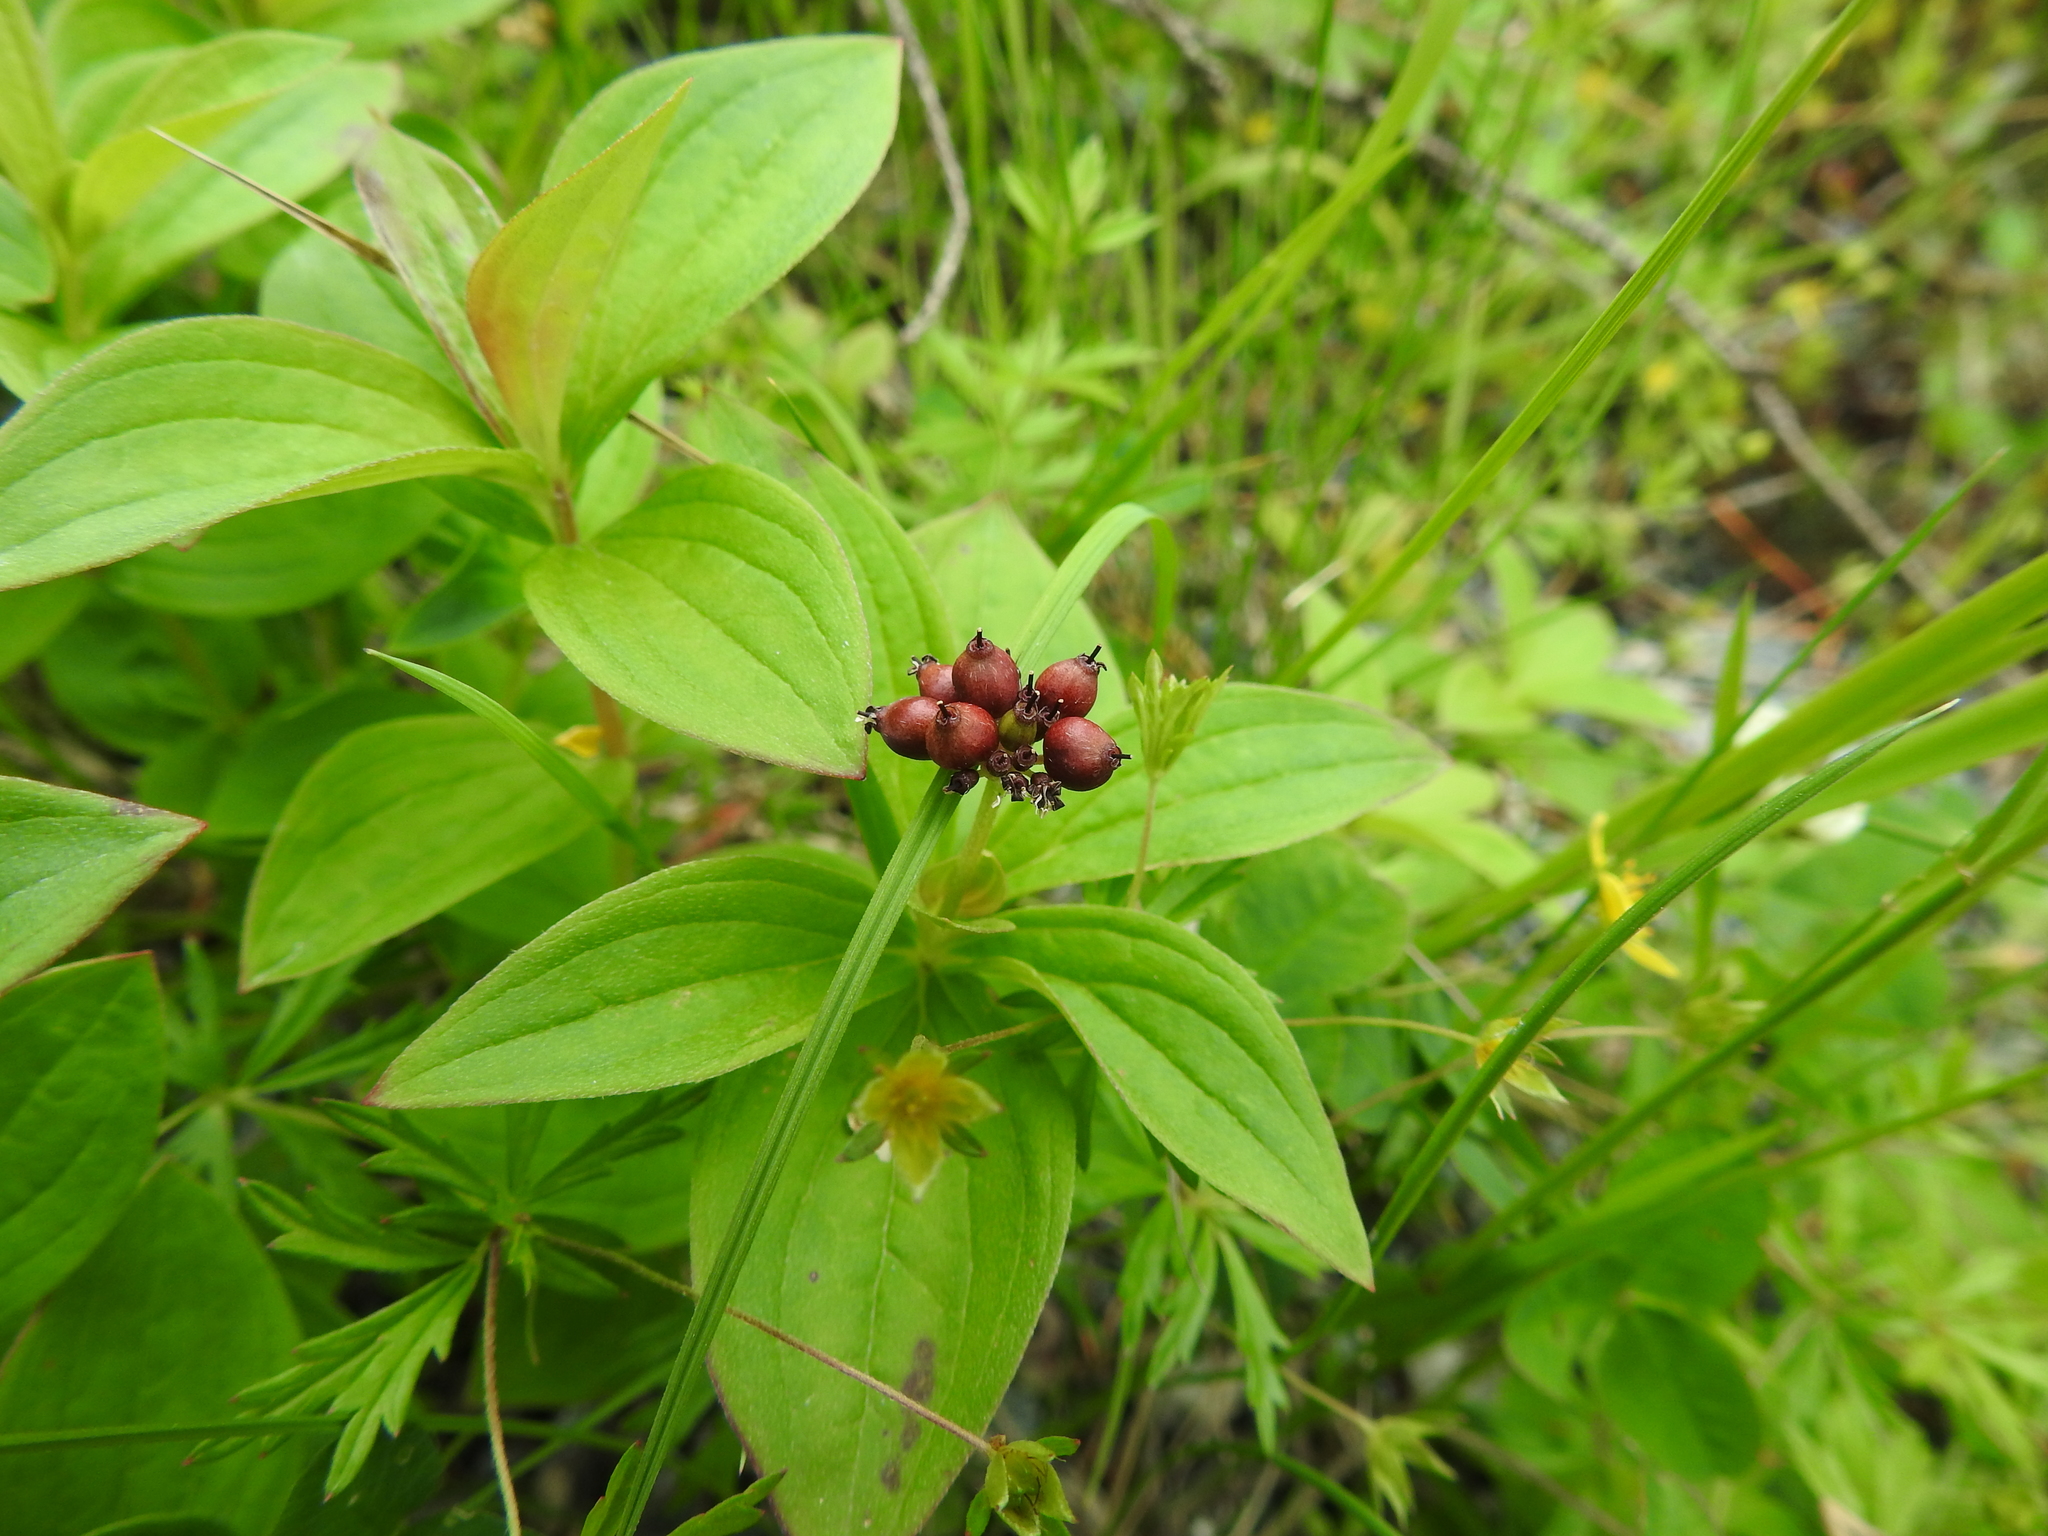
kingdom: Plantae
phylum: Tracheophyta
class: Magnoliopsida
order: Cornales
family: Cornaceae
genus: Cornus
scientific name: Cornus suecica
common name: Dwarf cornel
